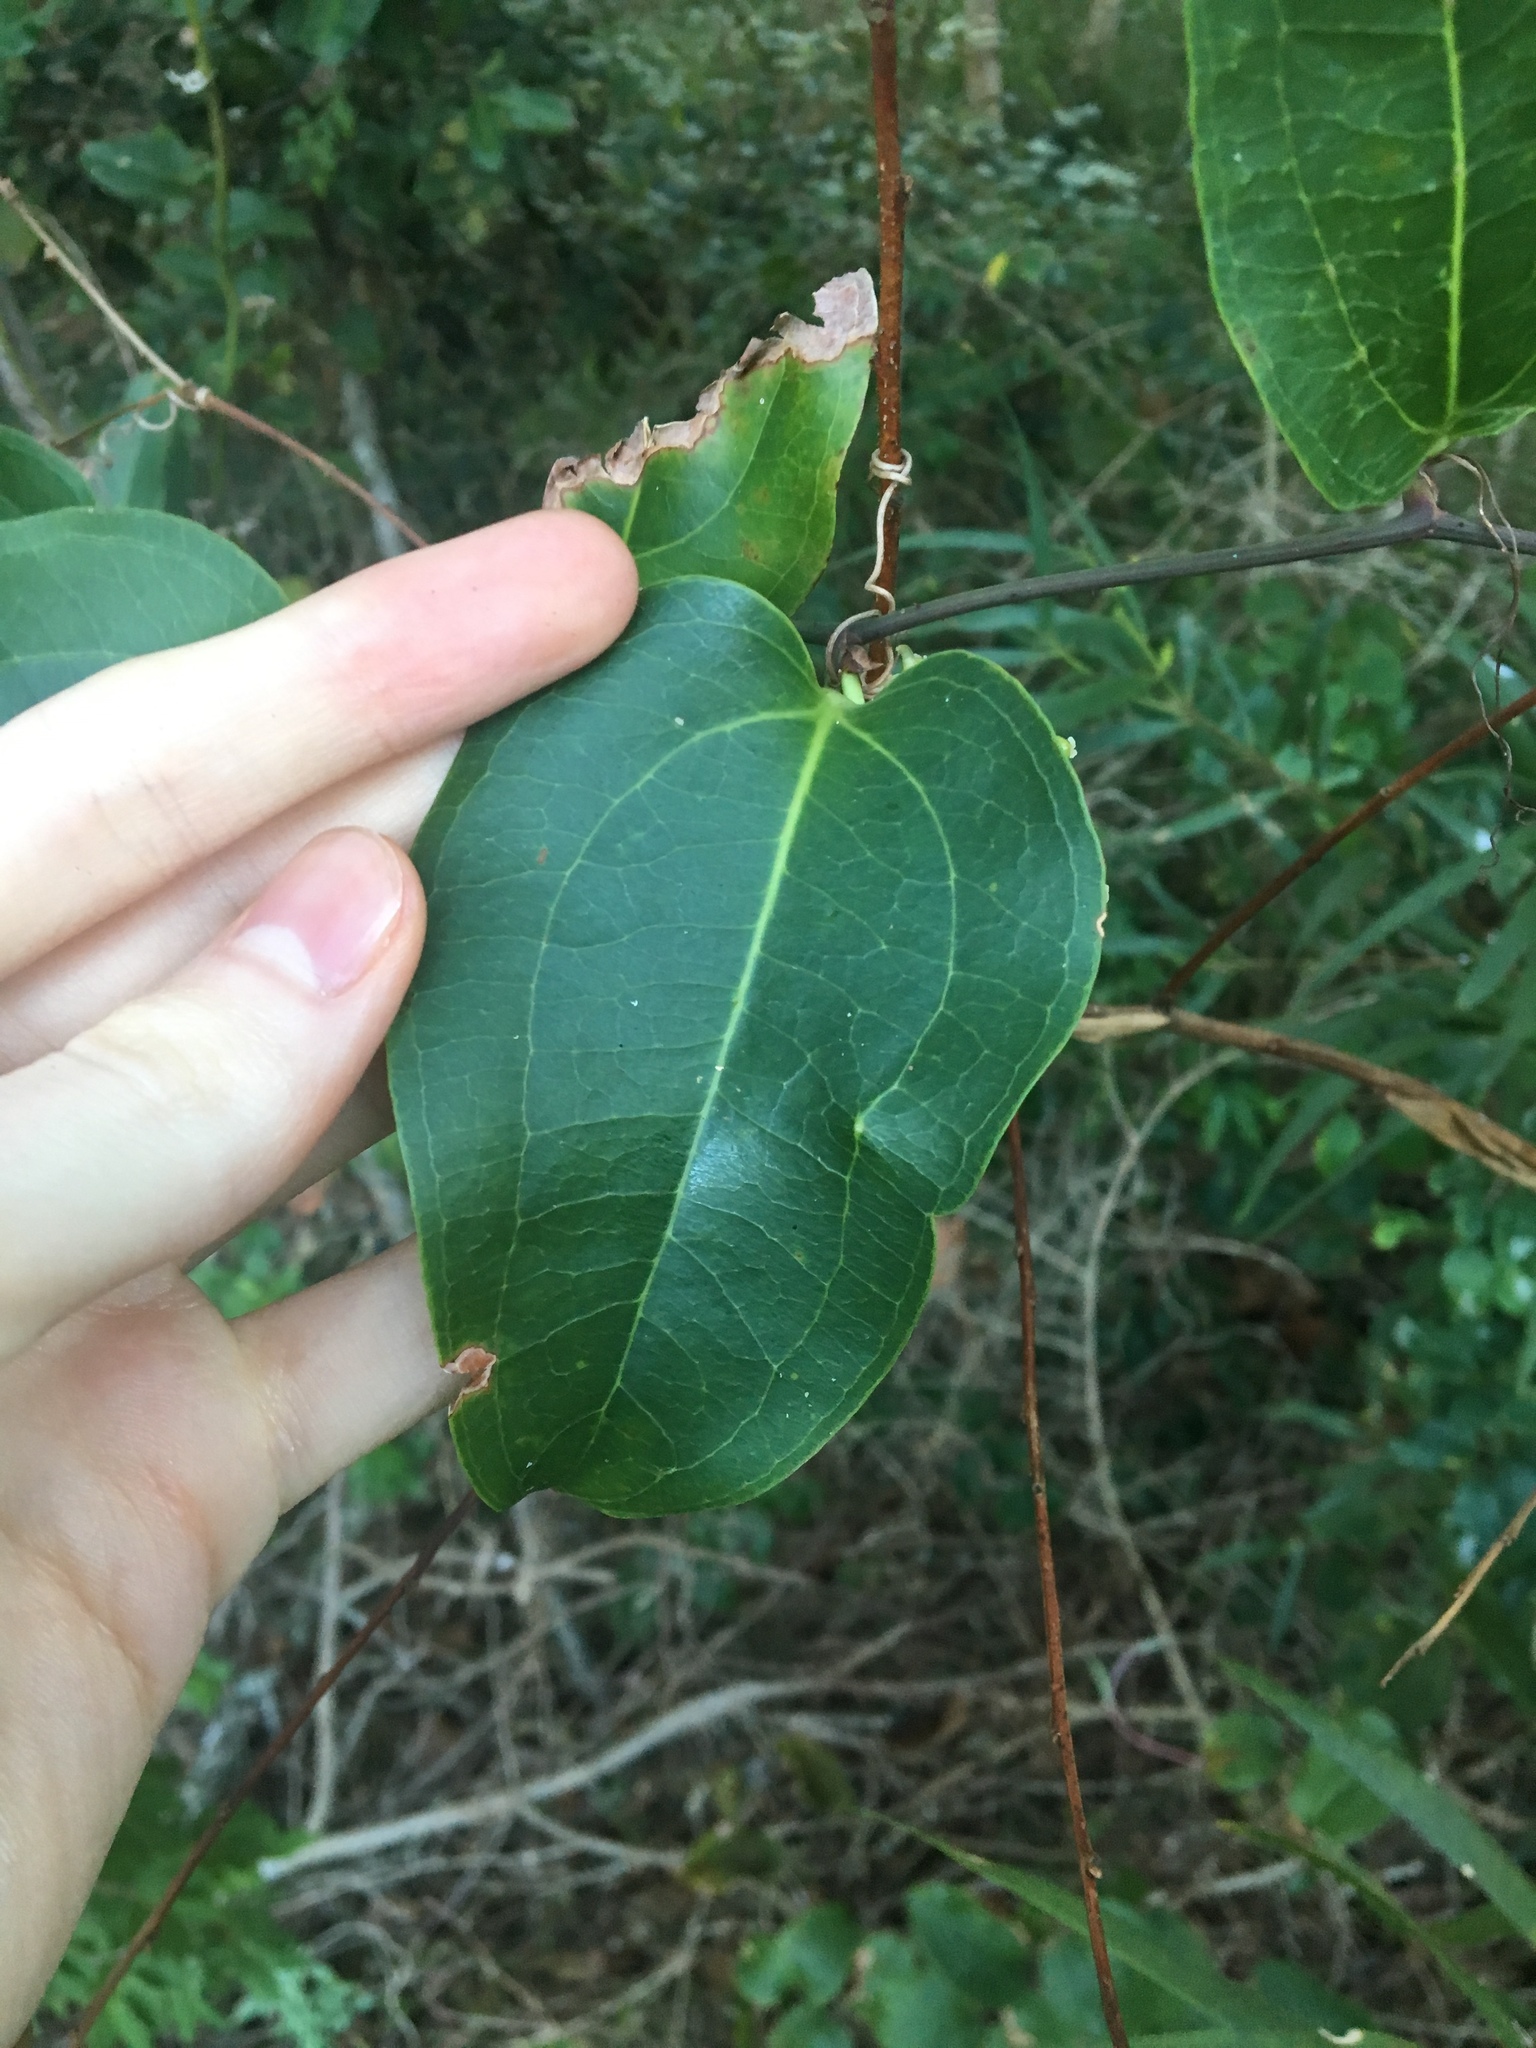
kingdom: Plantae
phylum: Tracheophyta
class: Liliopsida
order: Liliales
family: Smilacaceae
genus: Smilax
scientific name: Smilax australis
